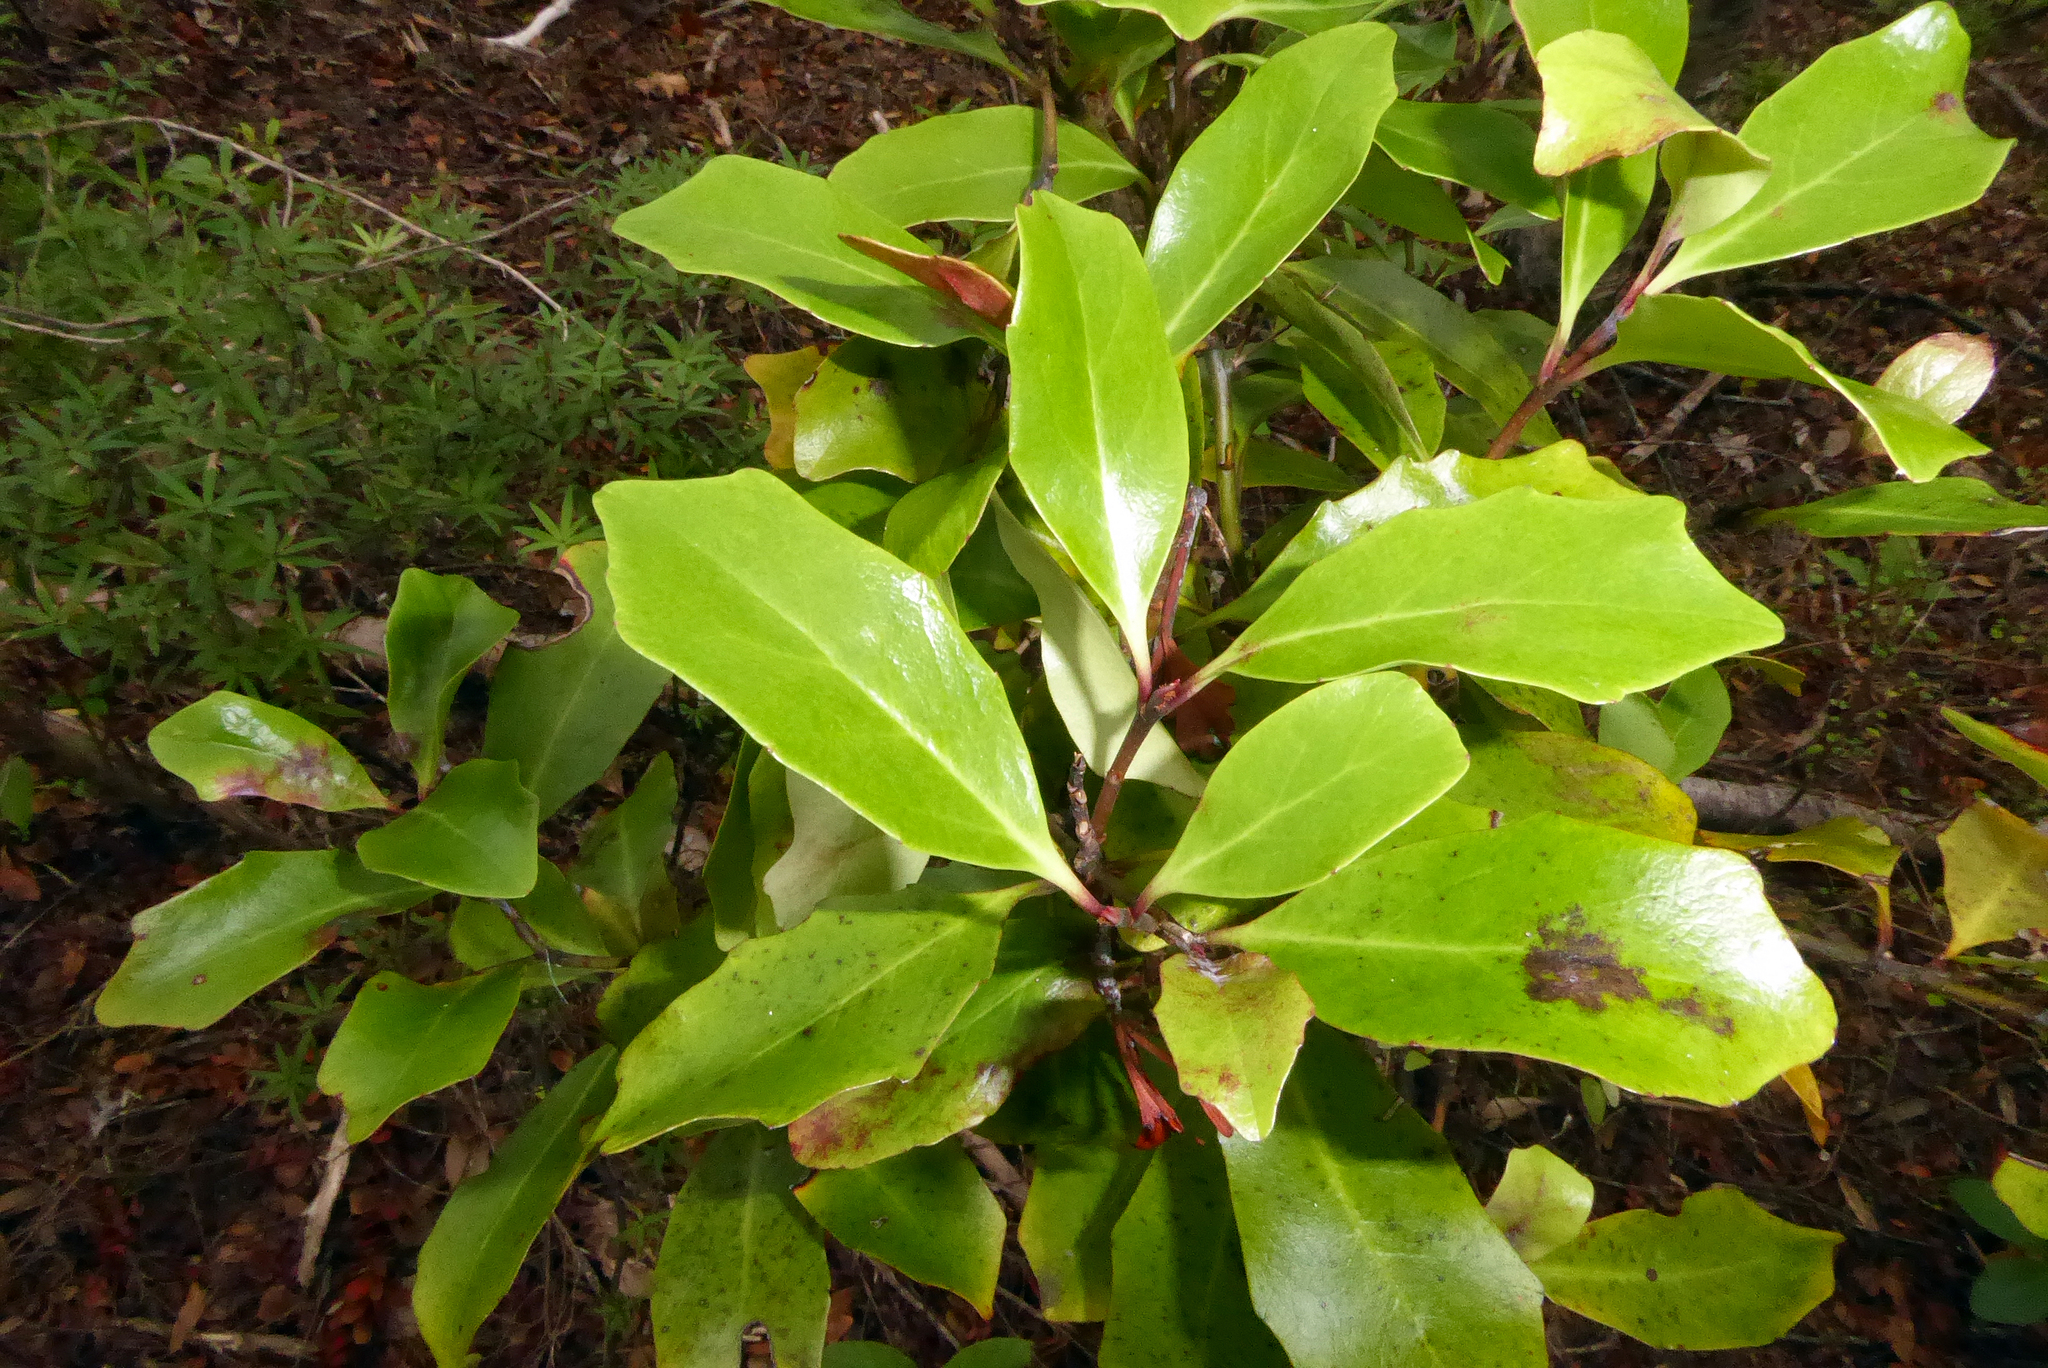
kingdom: Plantae
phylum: Tracheophyta
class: Magnoliopsida
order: Asterales
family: Alseuosmiaceae
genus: Alseuosmia
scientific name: Alseuosmia quercifolia
